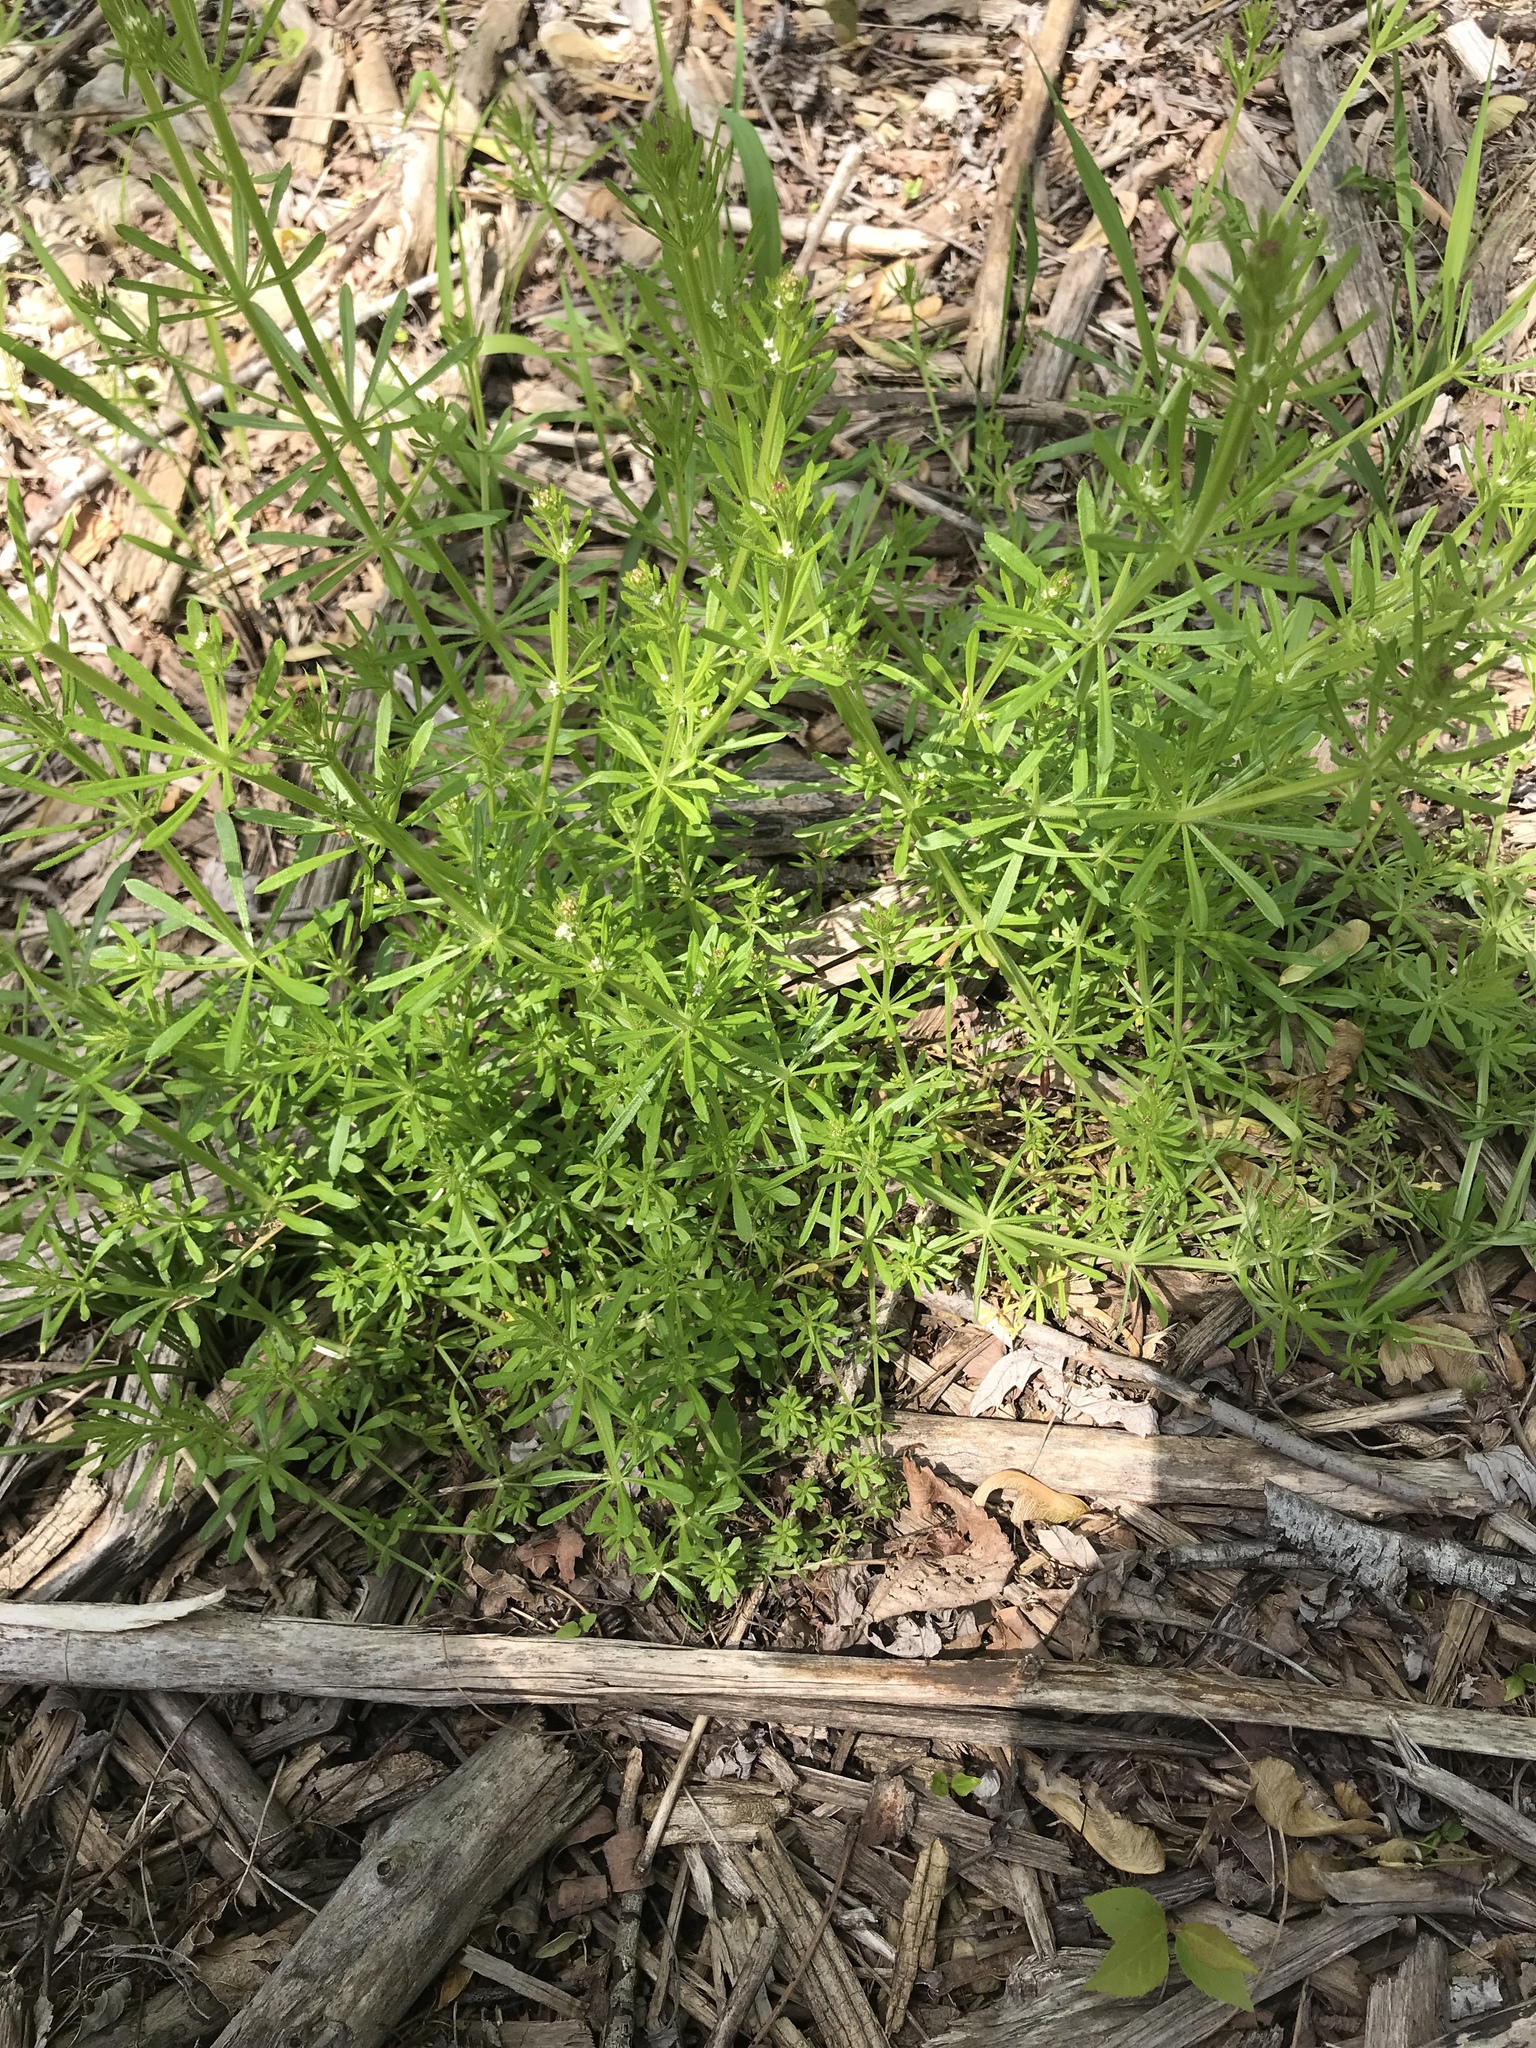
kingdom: Plantae
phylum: Tracheophyta
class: Magnoliopsida
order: Gentianales
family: Rubiaceae
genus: Galium
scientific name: Galium aparine
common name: Cleavers
